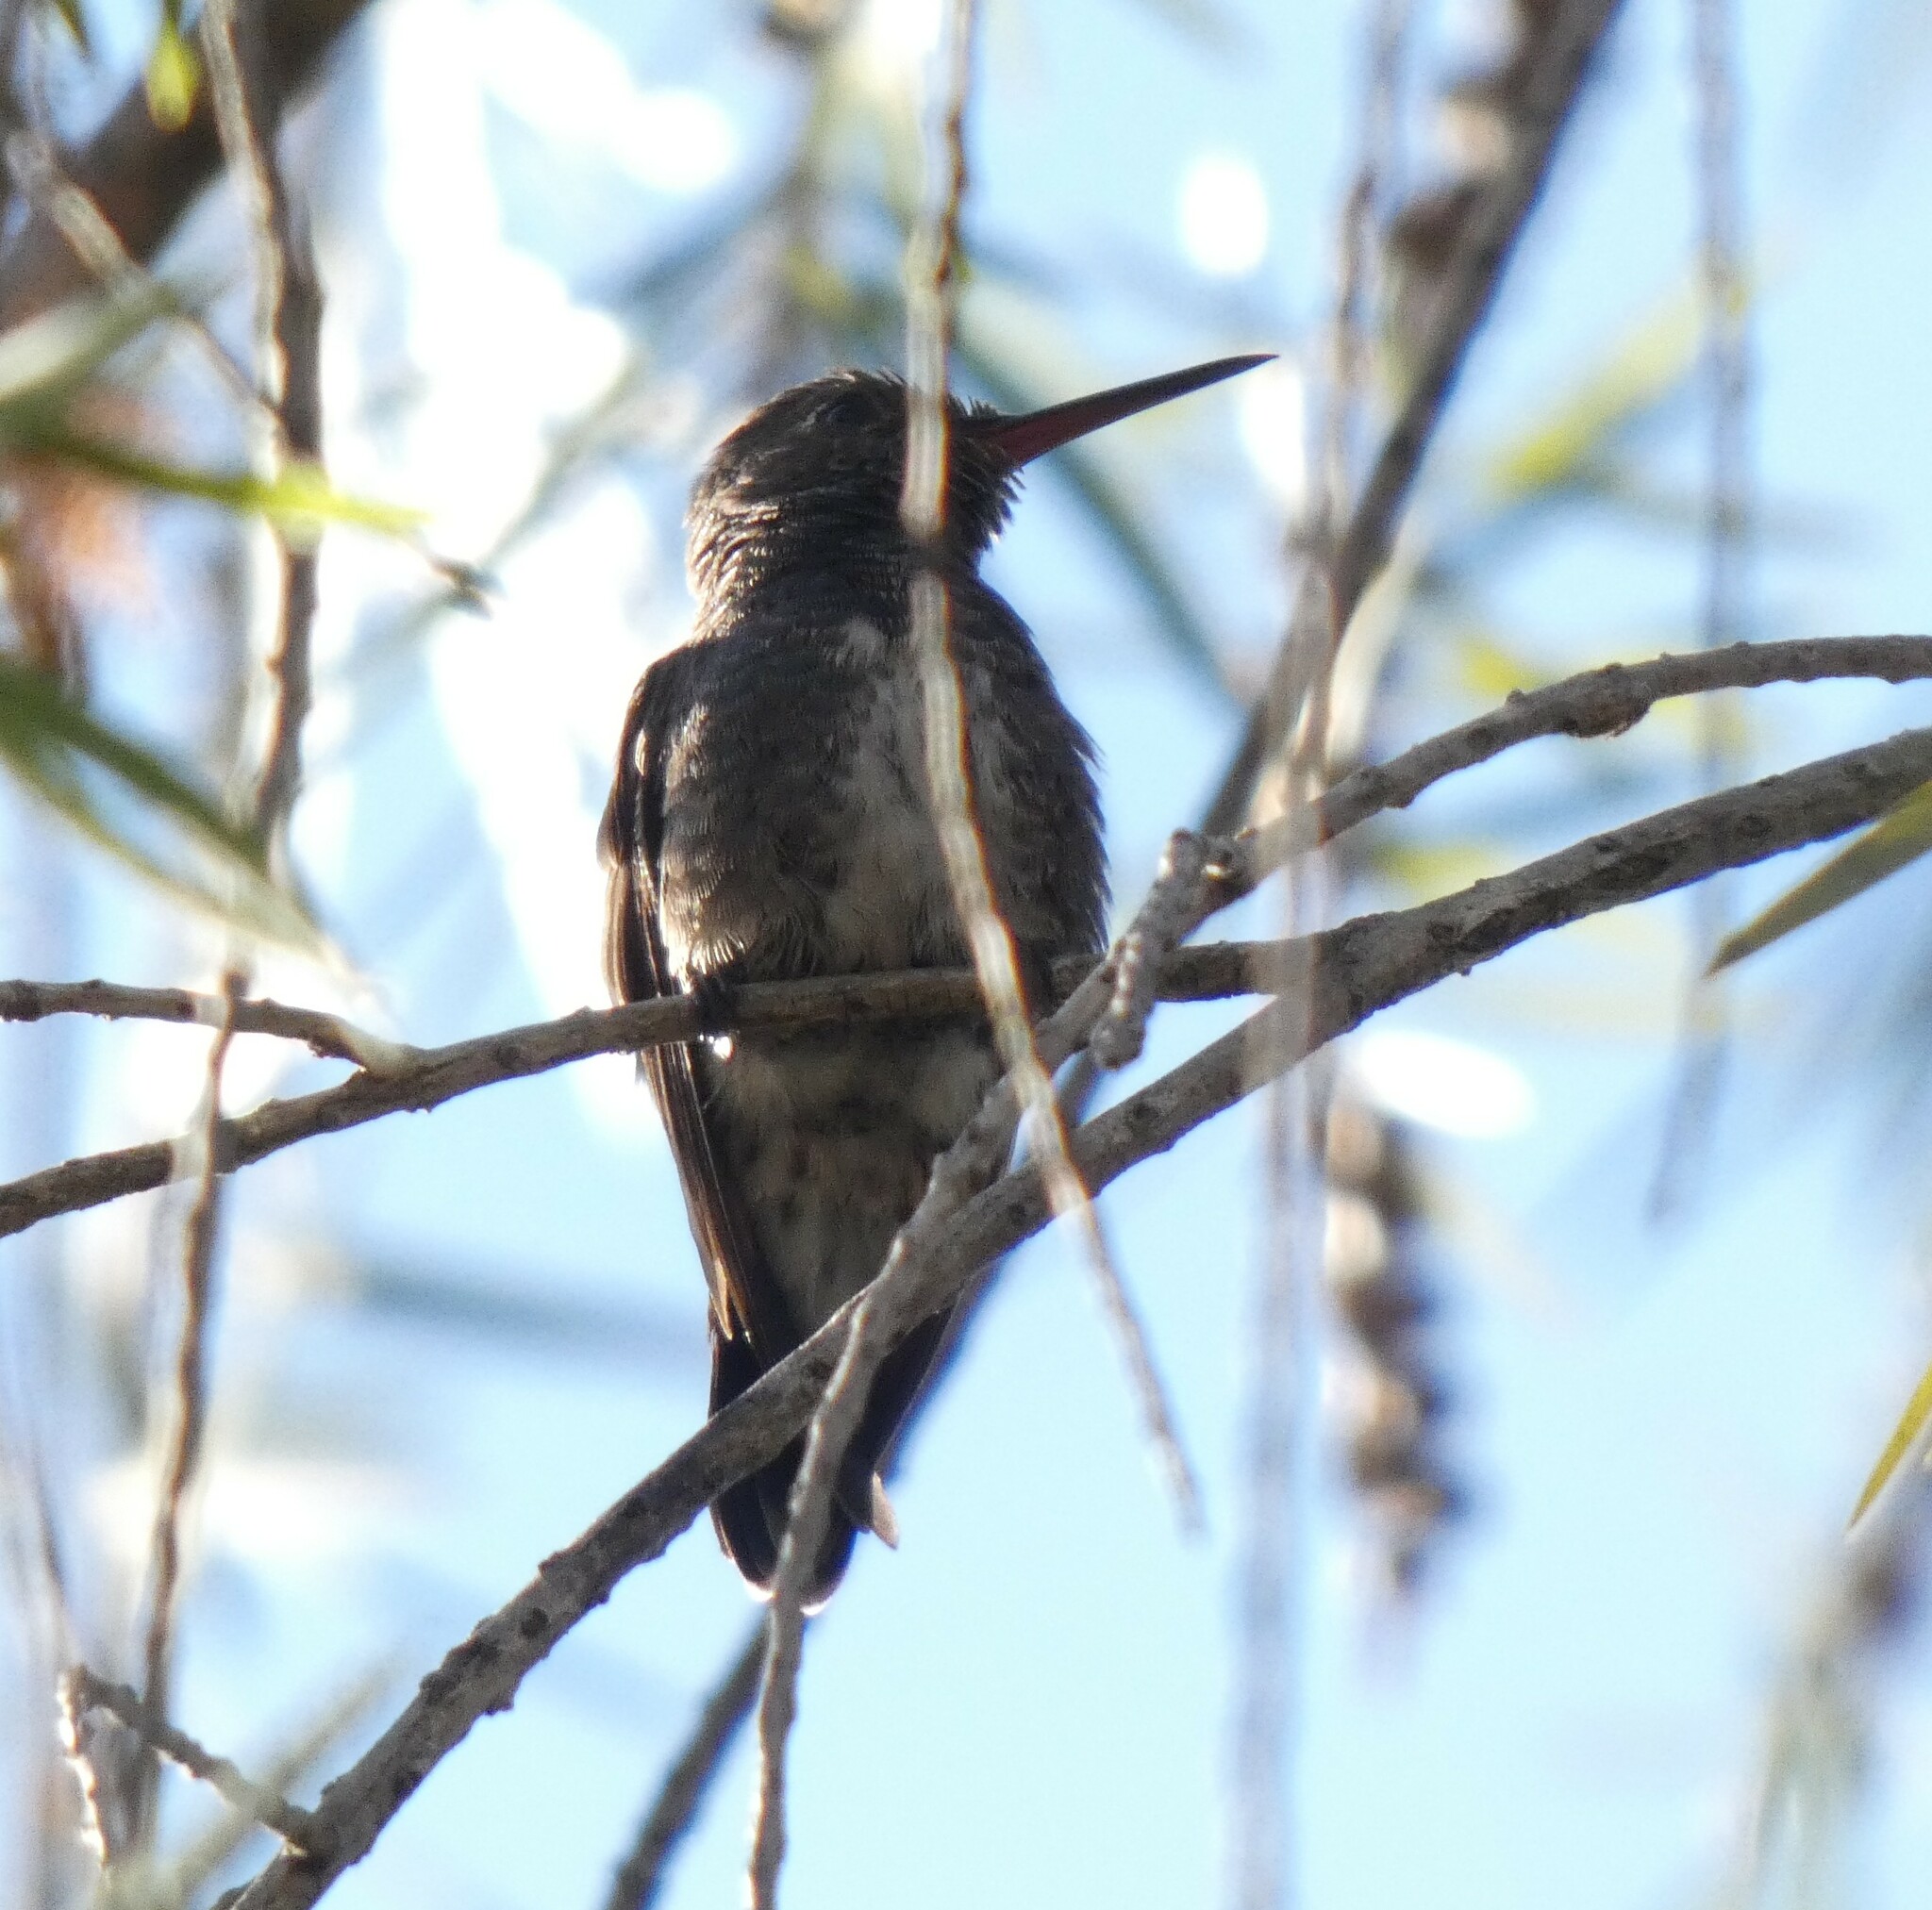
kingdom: Animalia
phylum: Chordata
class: Aves
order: Apodiformes
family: Trochilidae
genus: Chionomesa
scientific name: Chionomesa lactea
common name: Sapphire-spangled emerald
